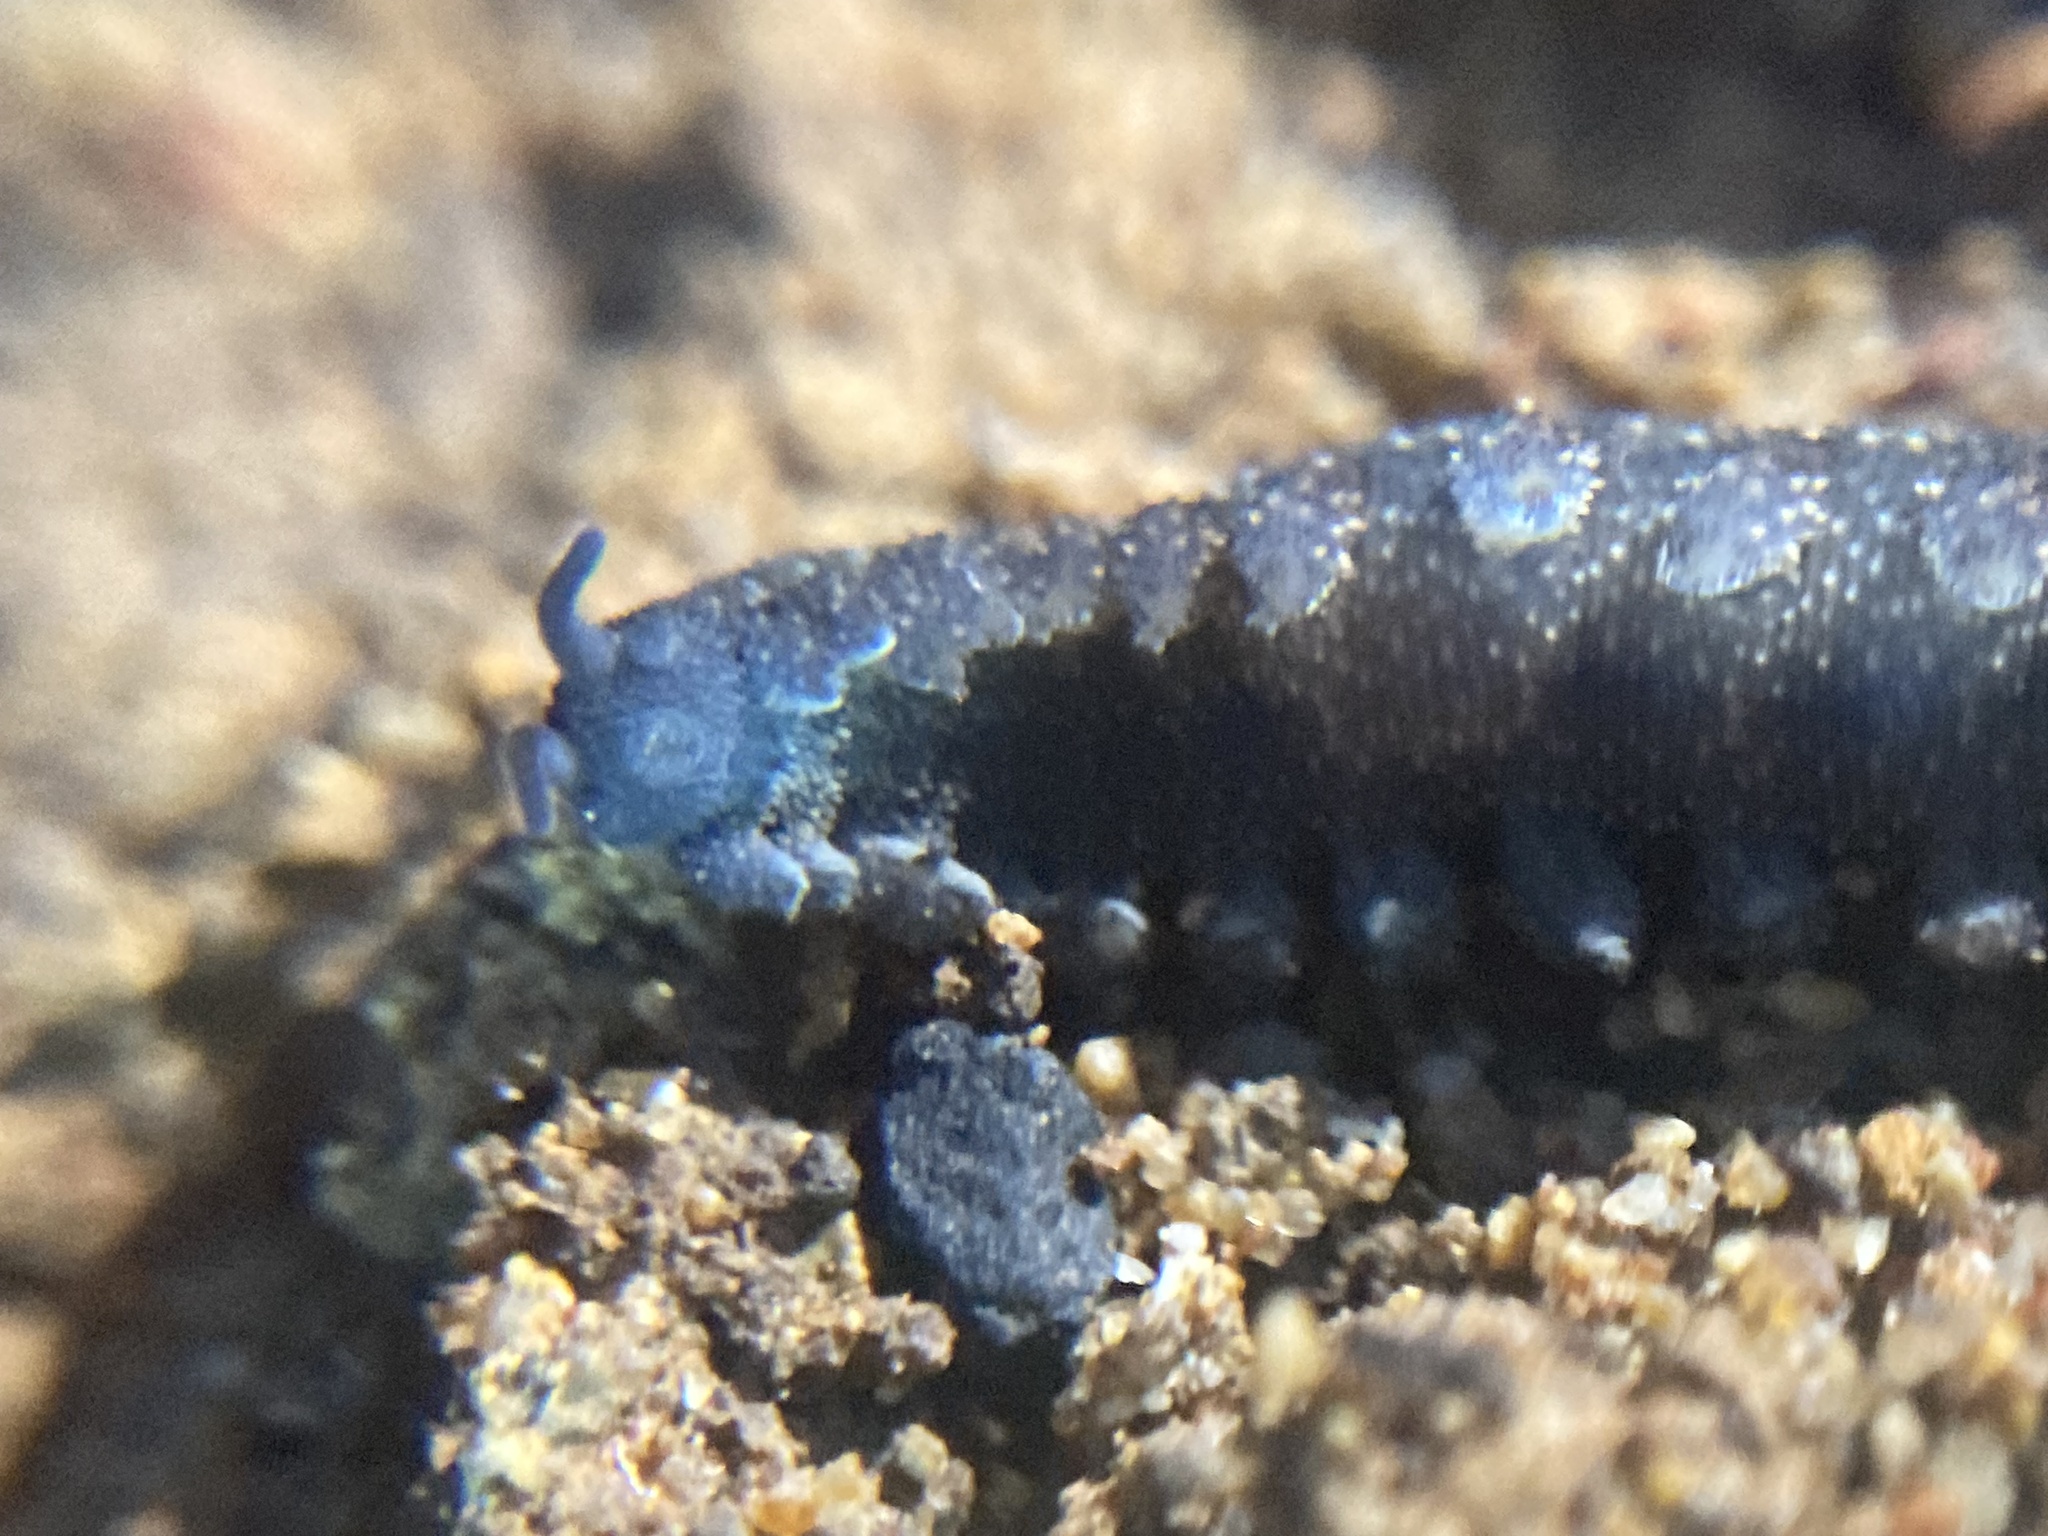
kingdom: Animalia
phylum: Onychophora
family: Peripatopsidae
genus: Anoplokaros
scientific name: Anoplokaros keerensis
